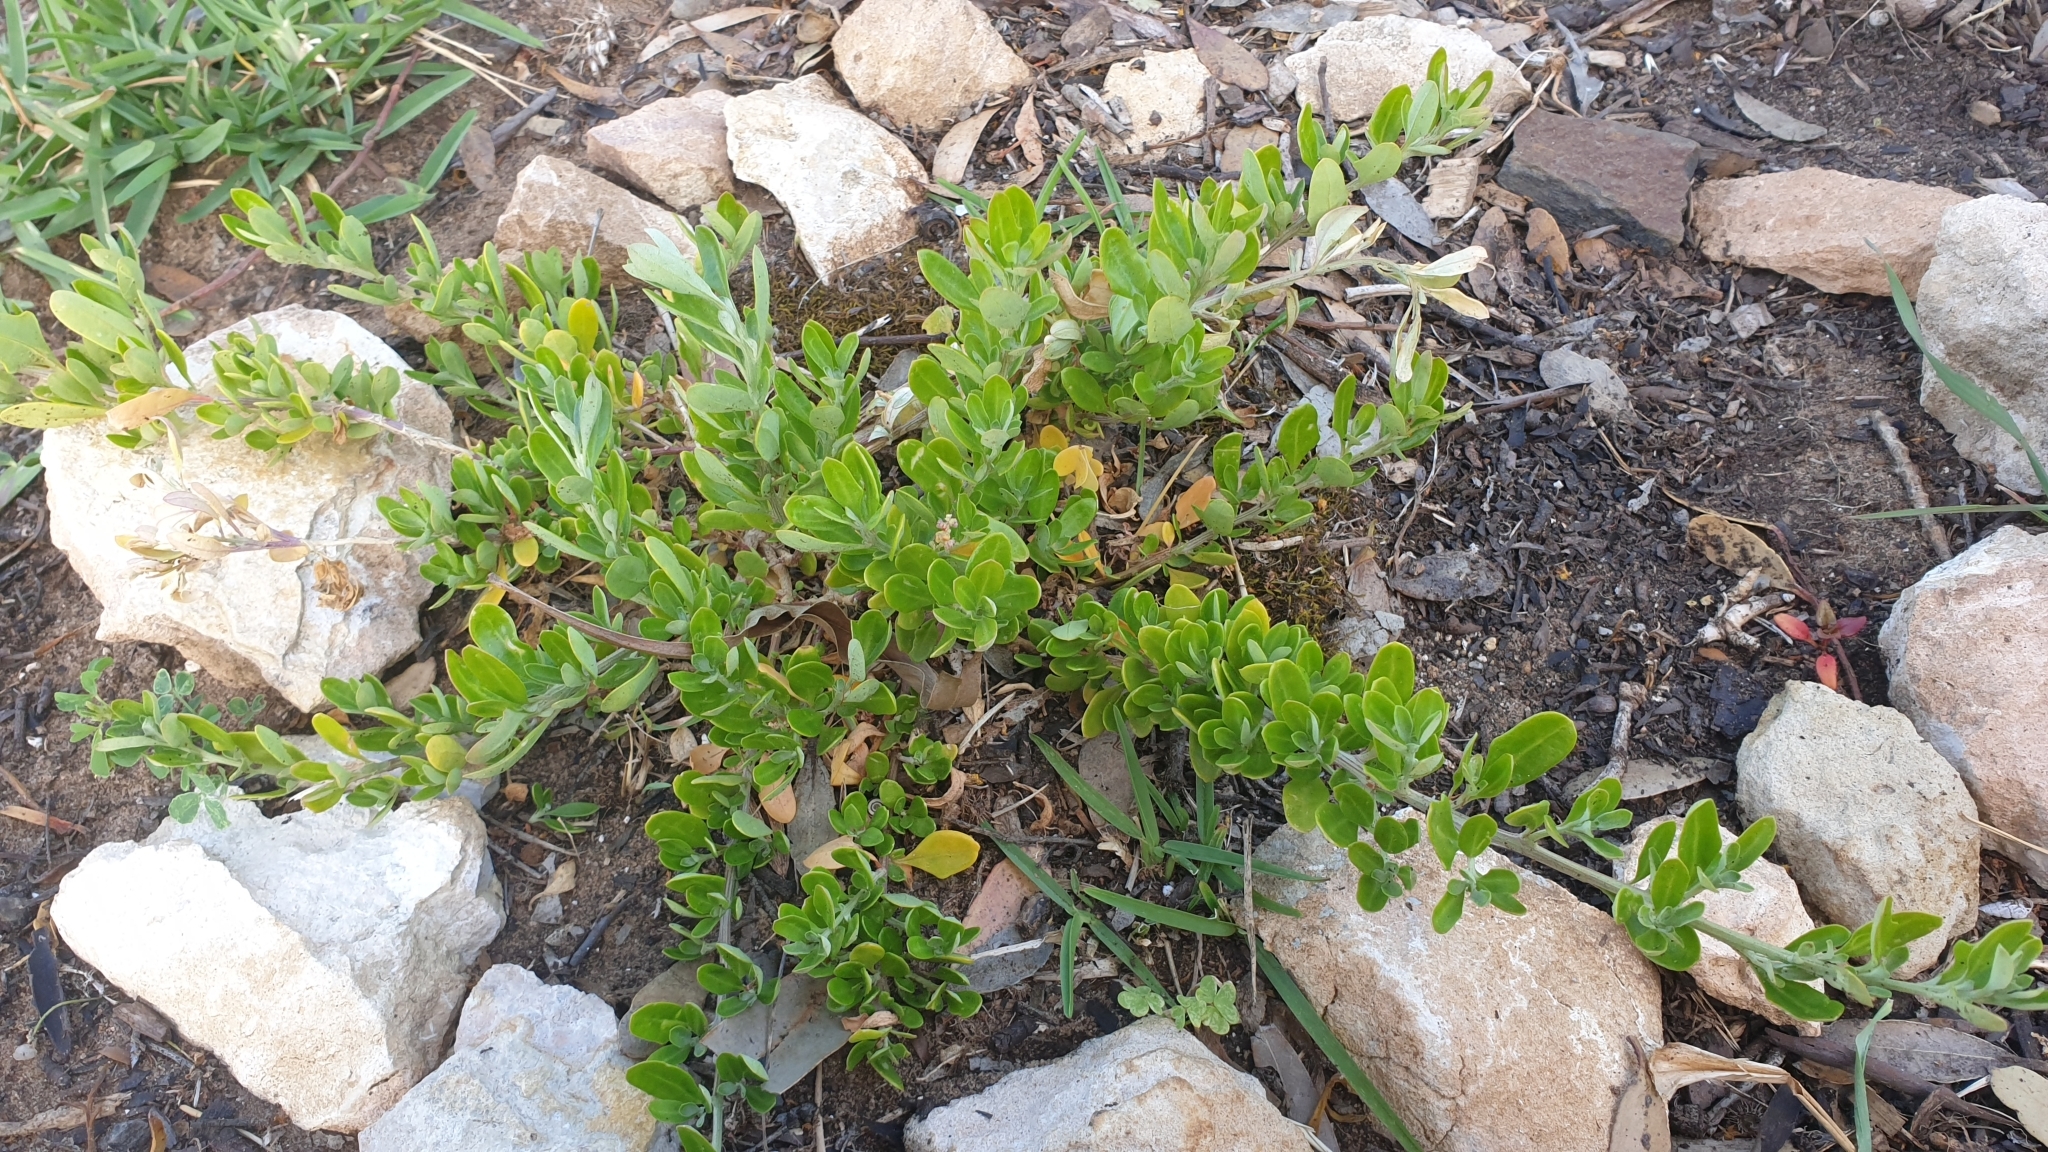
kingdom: Plantae
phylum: Tracheophyta
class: Magnoliopsida
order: Caryophyllales
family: Amaranthaceae
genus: Chenopodium
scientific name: Chenopodium candolleanum
